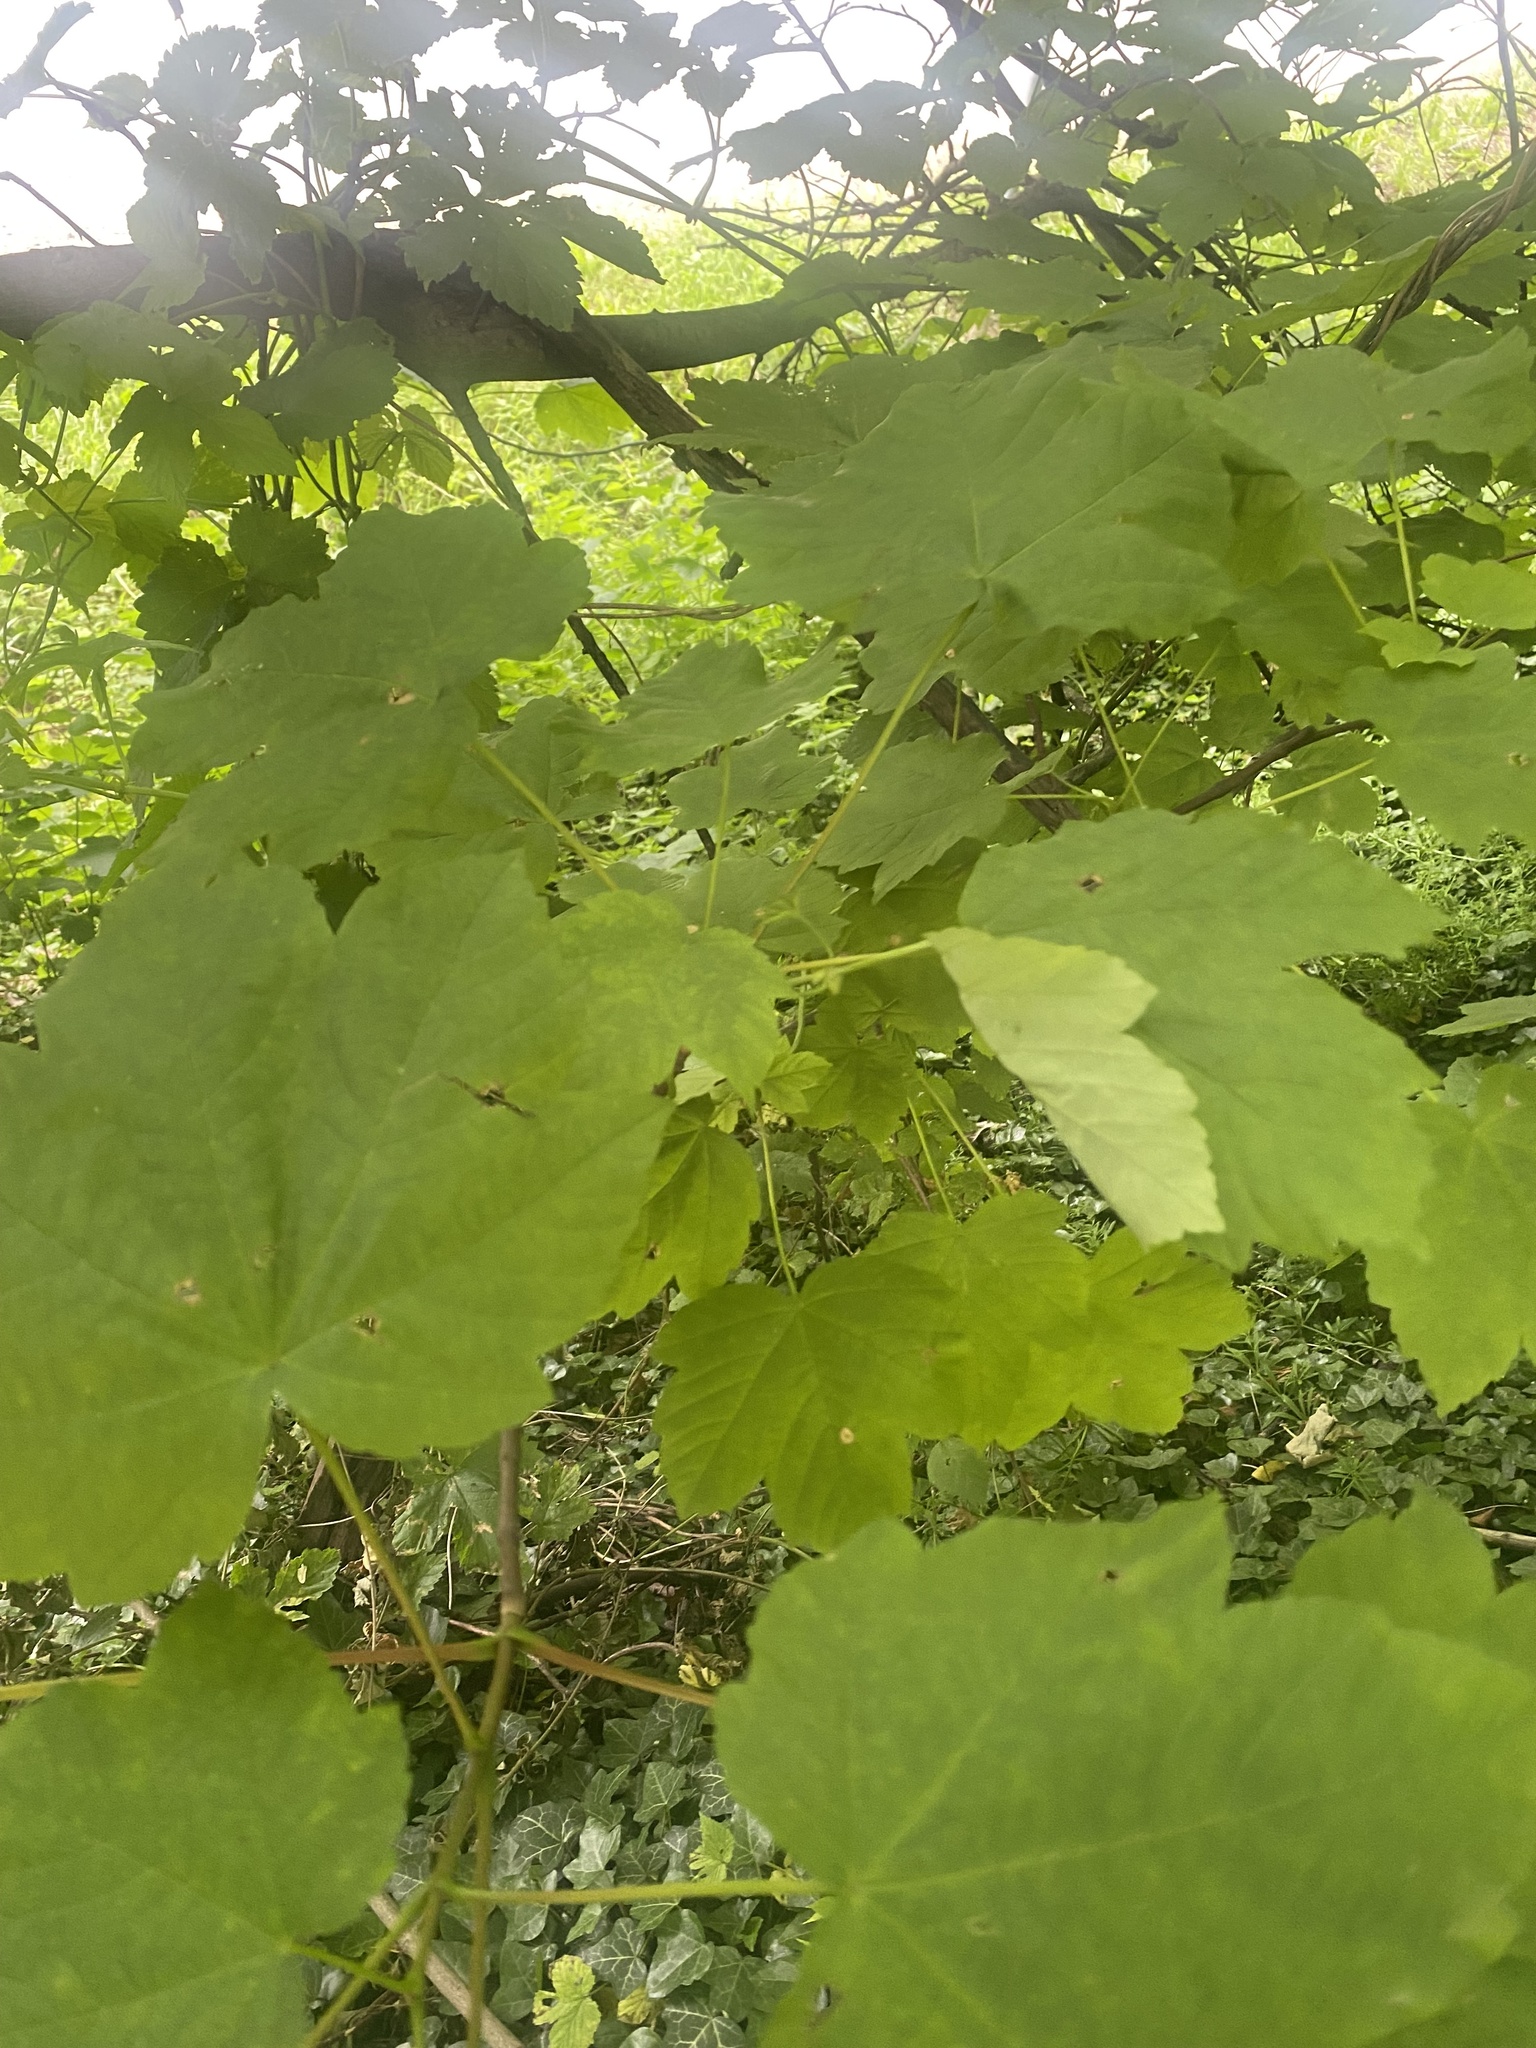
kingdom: Plantae
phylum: Tracheophyta
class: Magnoliopsida
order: Sapindales
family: Sapindaceae
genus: Acer
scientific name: Acer pseudoplatanus
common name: Sycamore
